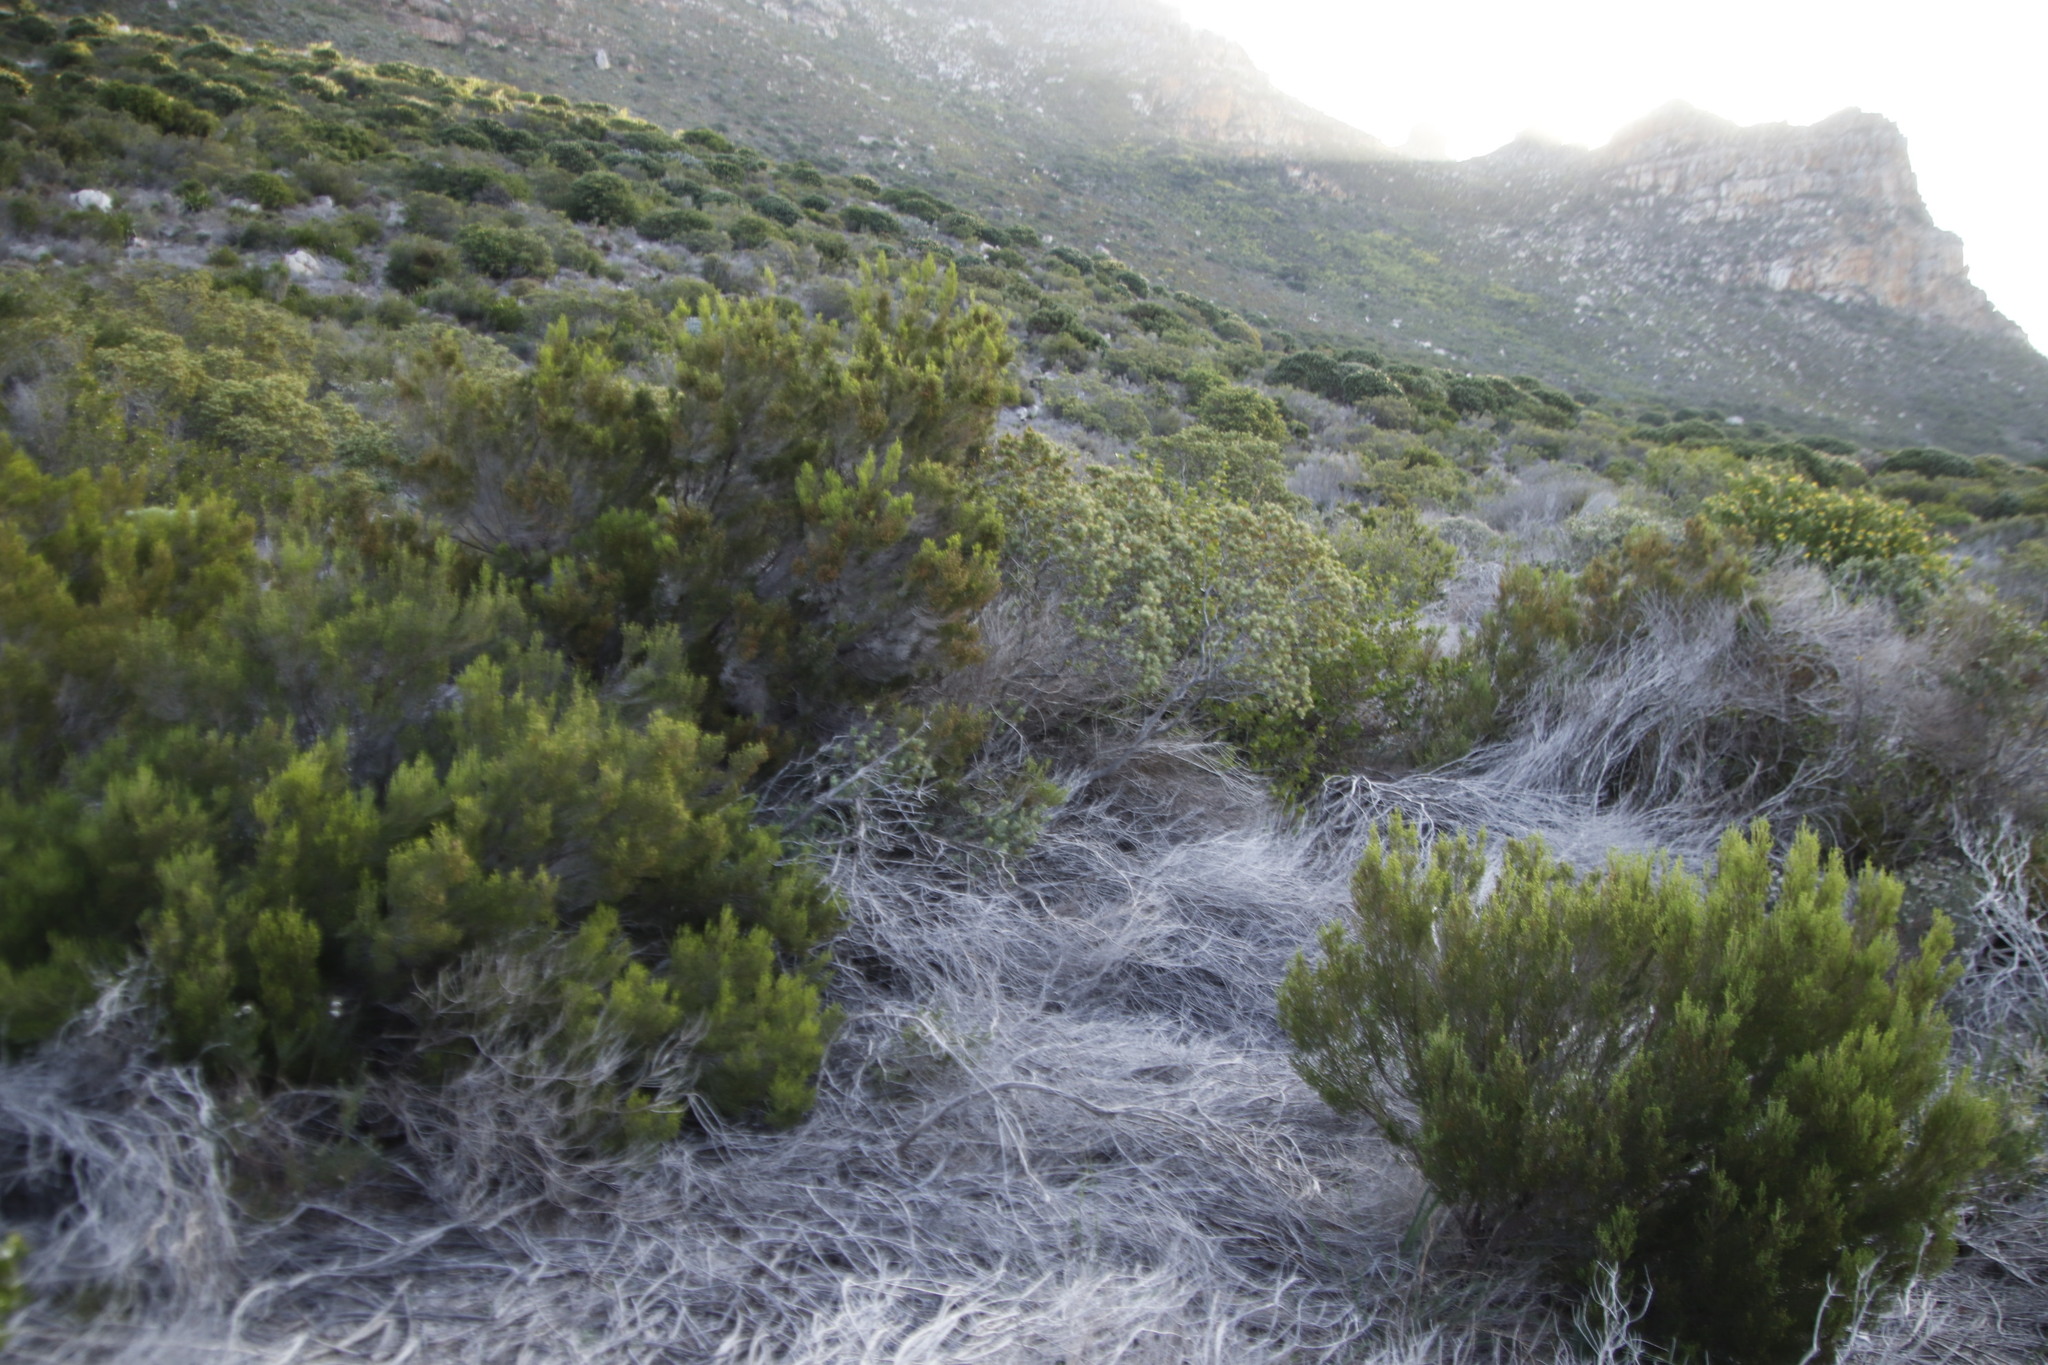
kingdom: Plantae
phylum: Tracheophyta
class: Magnoliopsida
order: Ericales
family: Ericaceae
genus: Erica
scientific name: Erica tristis
